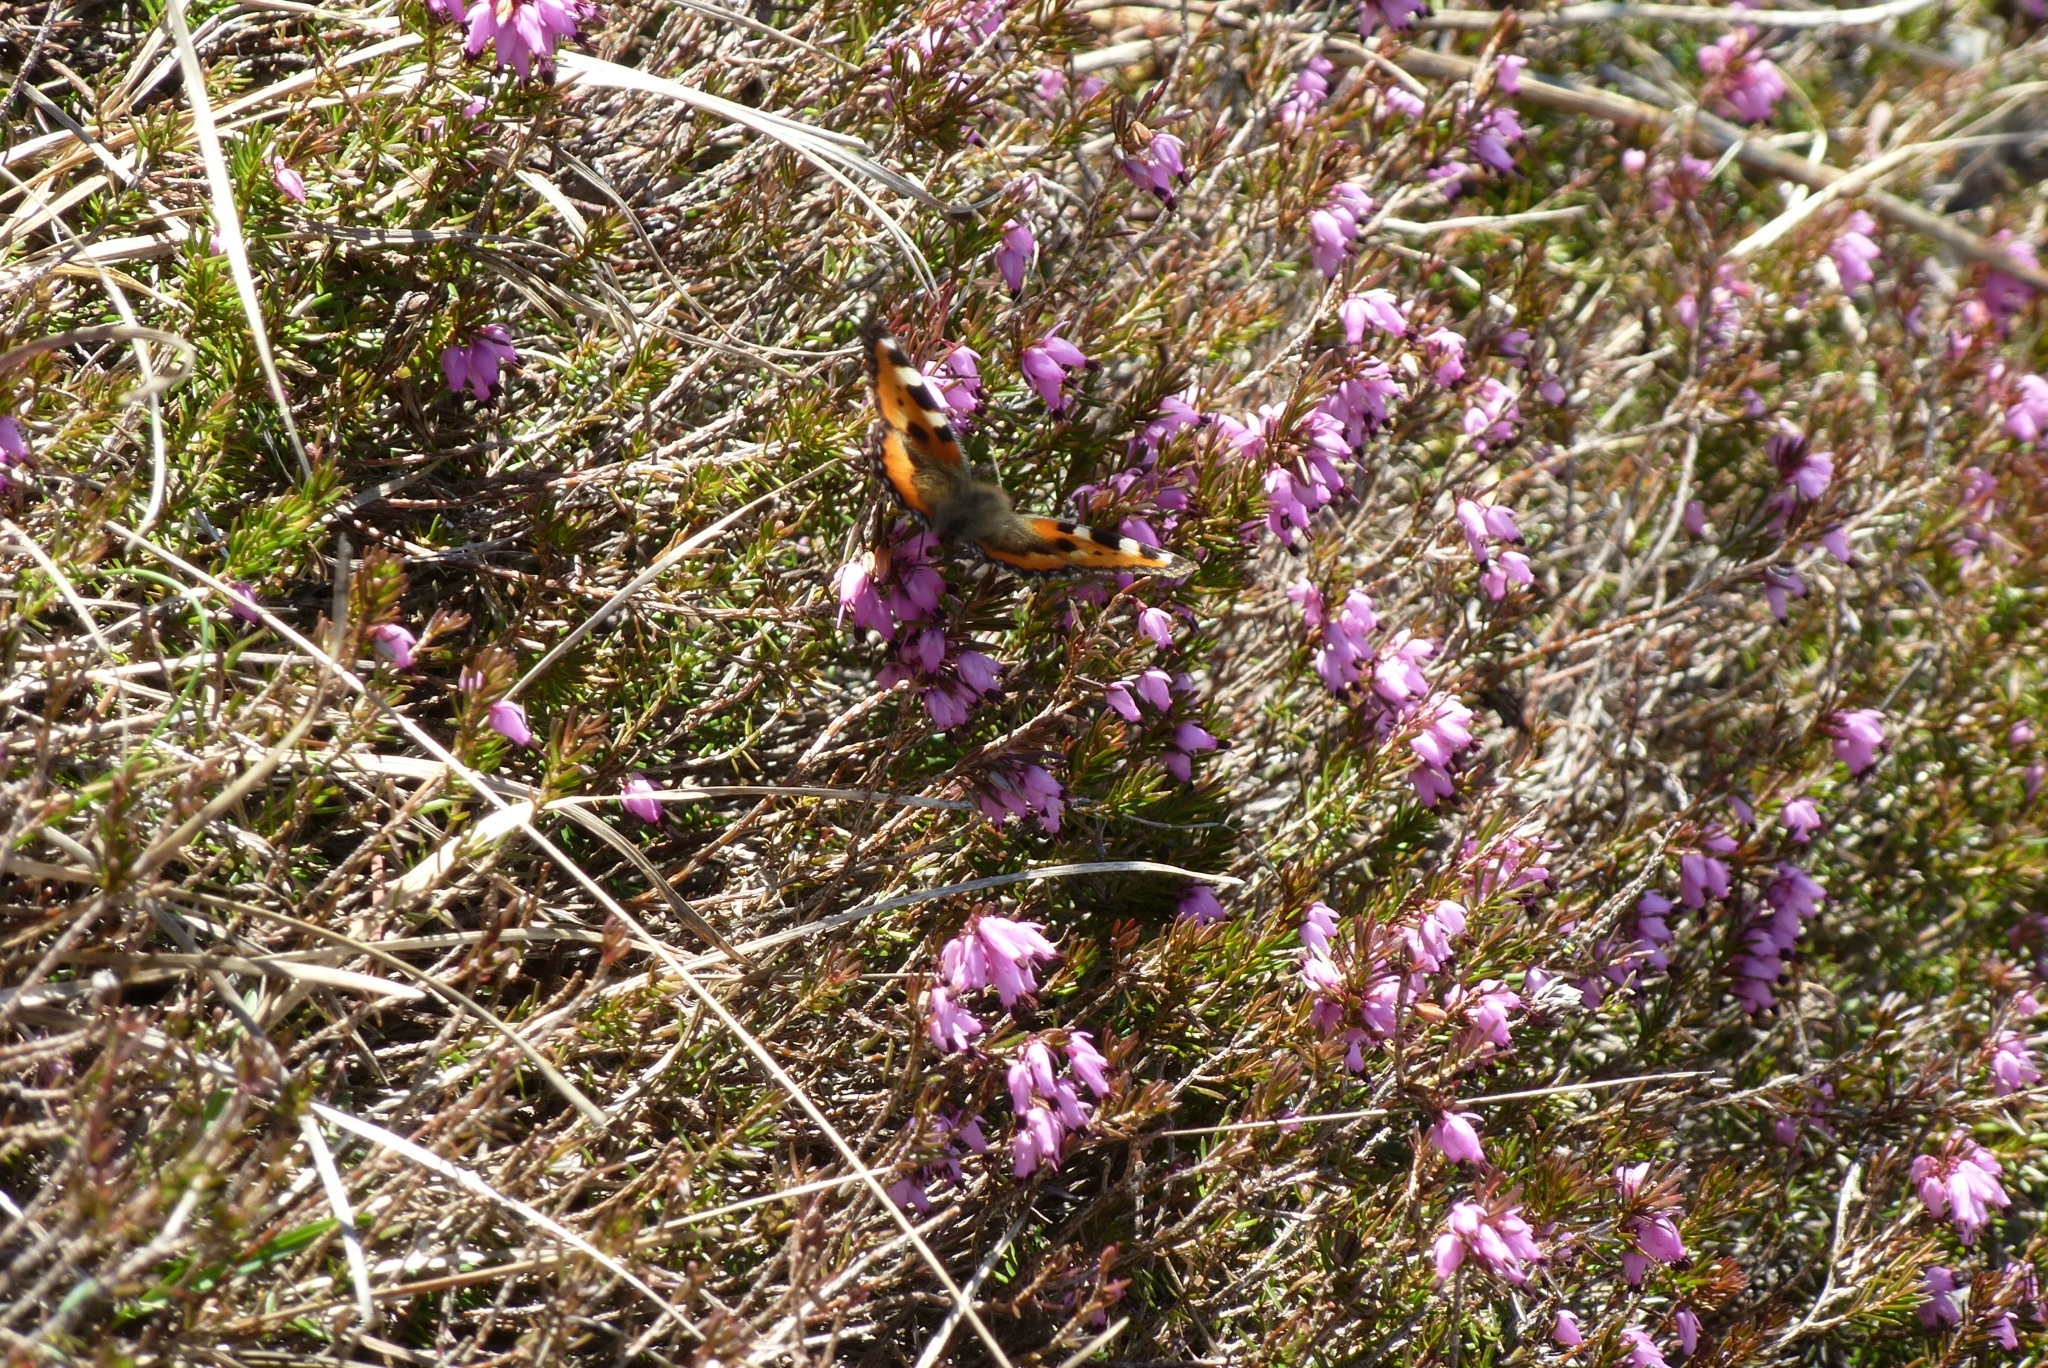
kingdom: Animalia
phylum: Arthropoda
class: Insecta
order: Lepidoptera
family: Nymphalidae
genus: Aglais
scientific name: Aglais urticae
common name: Small tortoiseshell
